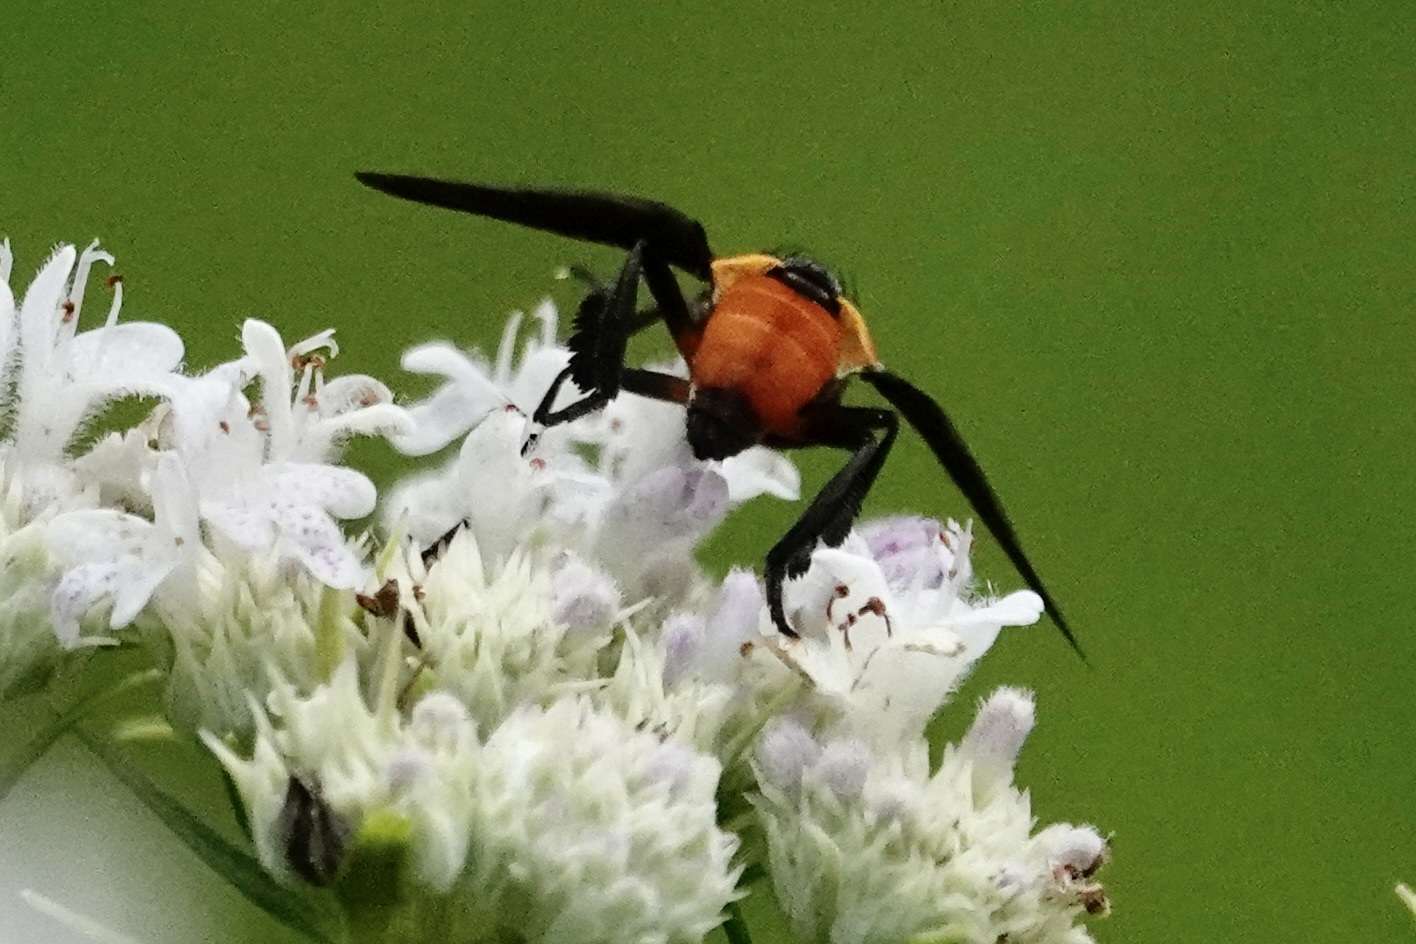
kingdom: Animalia
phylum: Arthropoda
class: Insecta
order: Diptera
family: Tachinidae
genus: Trichopoda
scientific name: Trichopoda pennipes
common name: Tachinid fly
